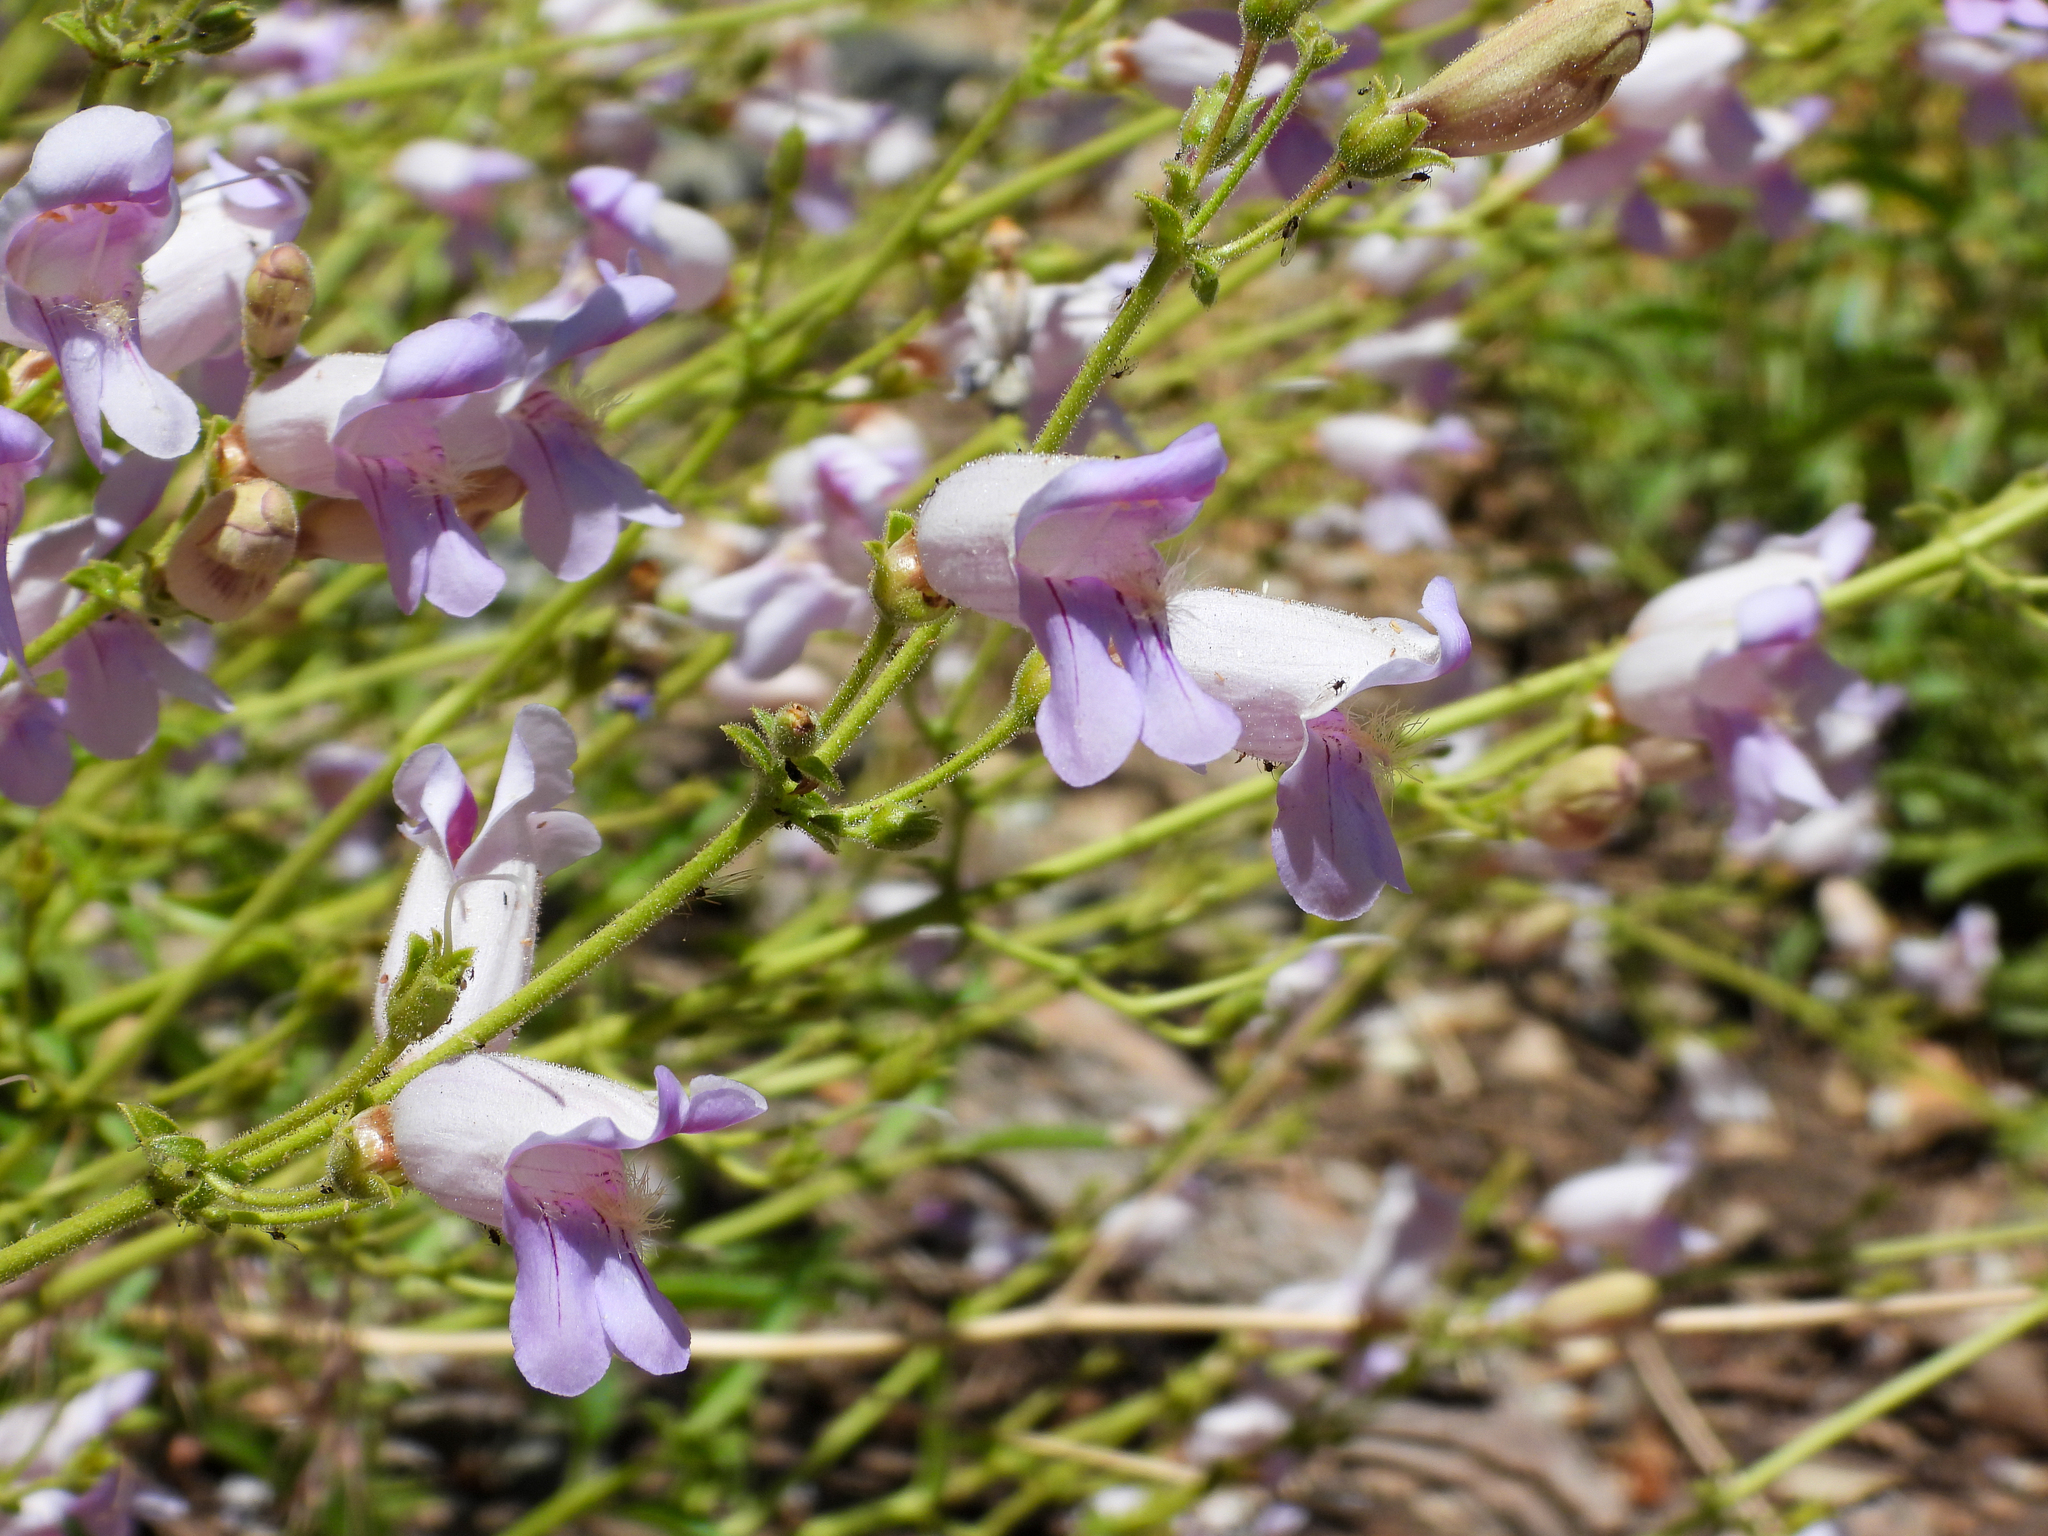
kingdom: Plantae
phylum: Tracheophyta
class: Magnoliopsida
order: Lamiales
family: Plantaginaceae
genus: Penstemon
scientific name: Penstemon grinnellii
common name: Grinnell's beardtongue
